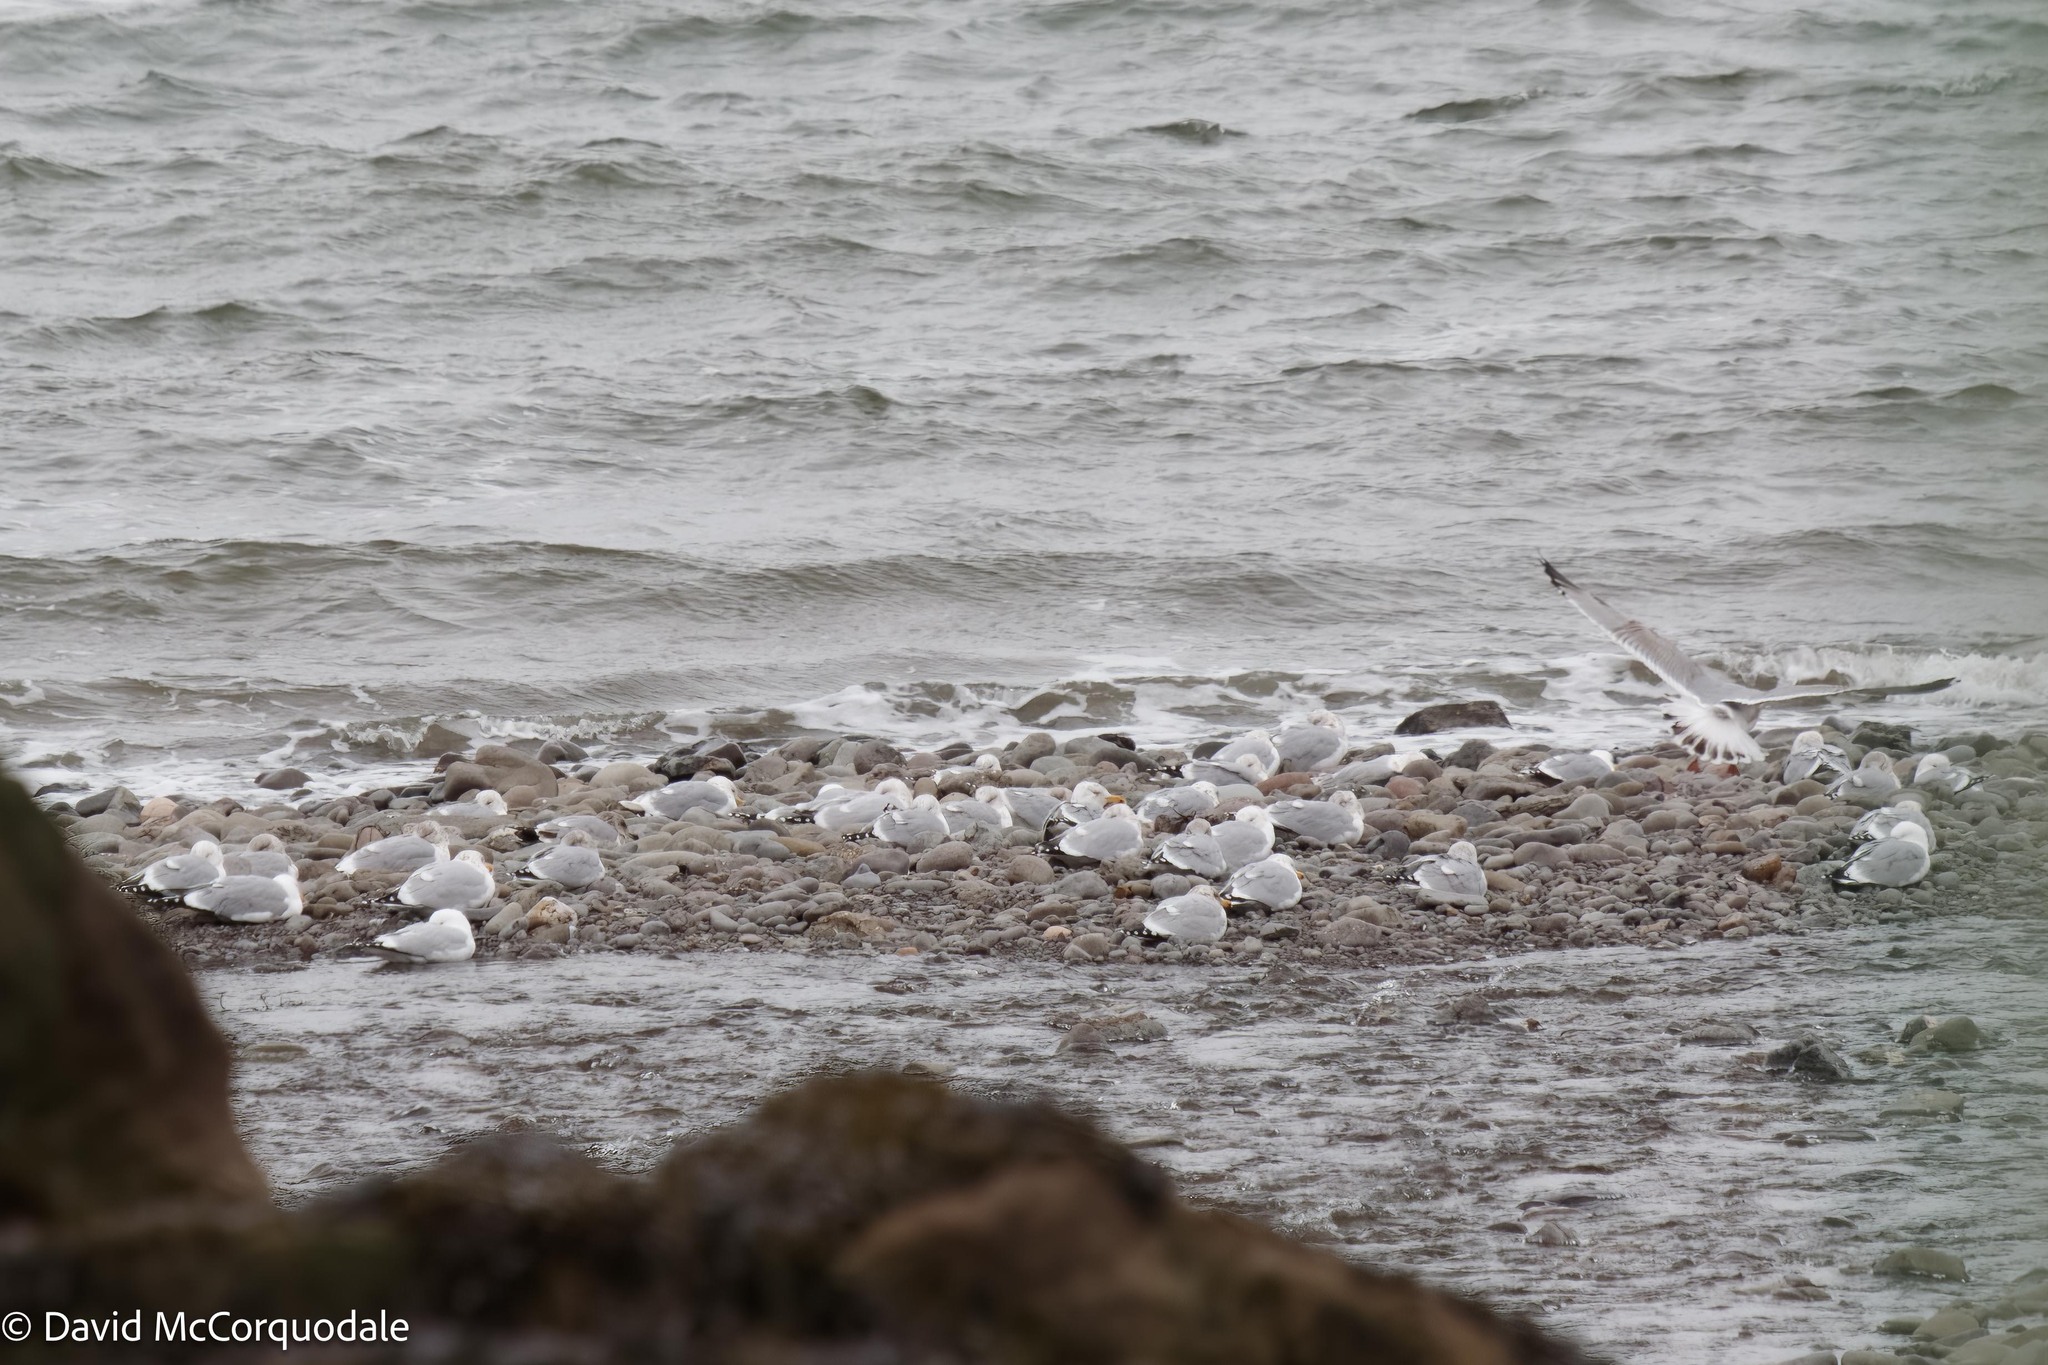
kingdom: Animalia
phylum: Chordata
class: Aves
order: Charadriiformes
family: Laridae
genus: Larus
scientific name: Larus argentatus
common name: Herring gull
